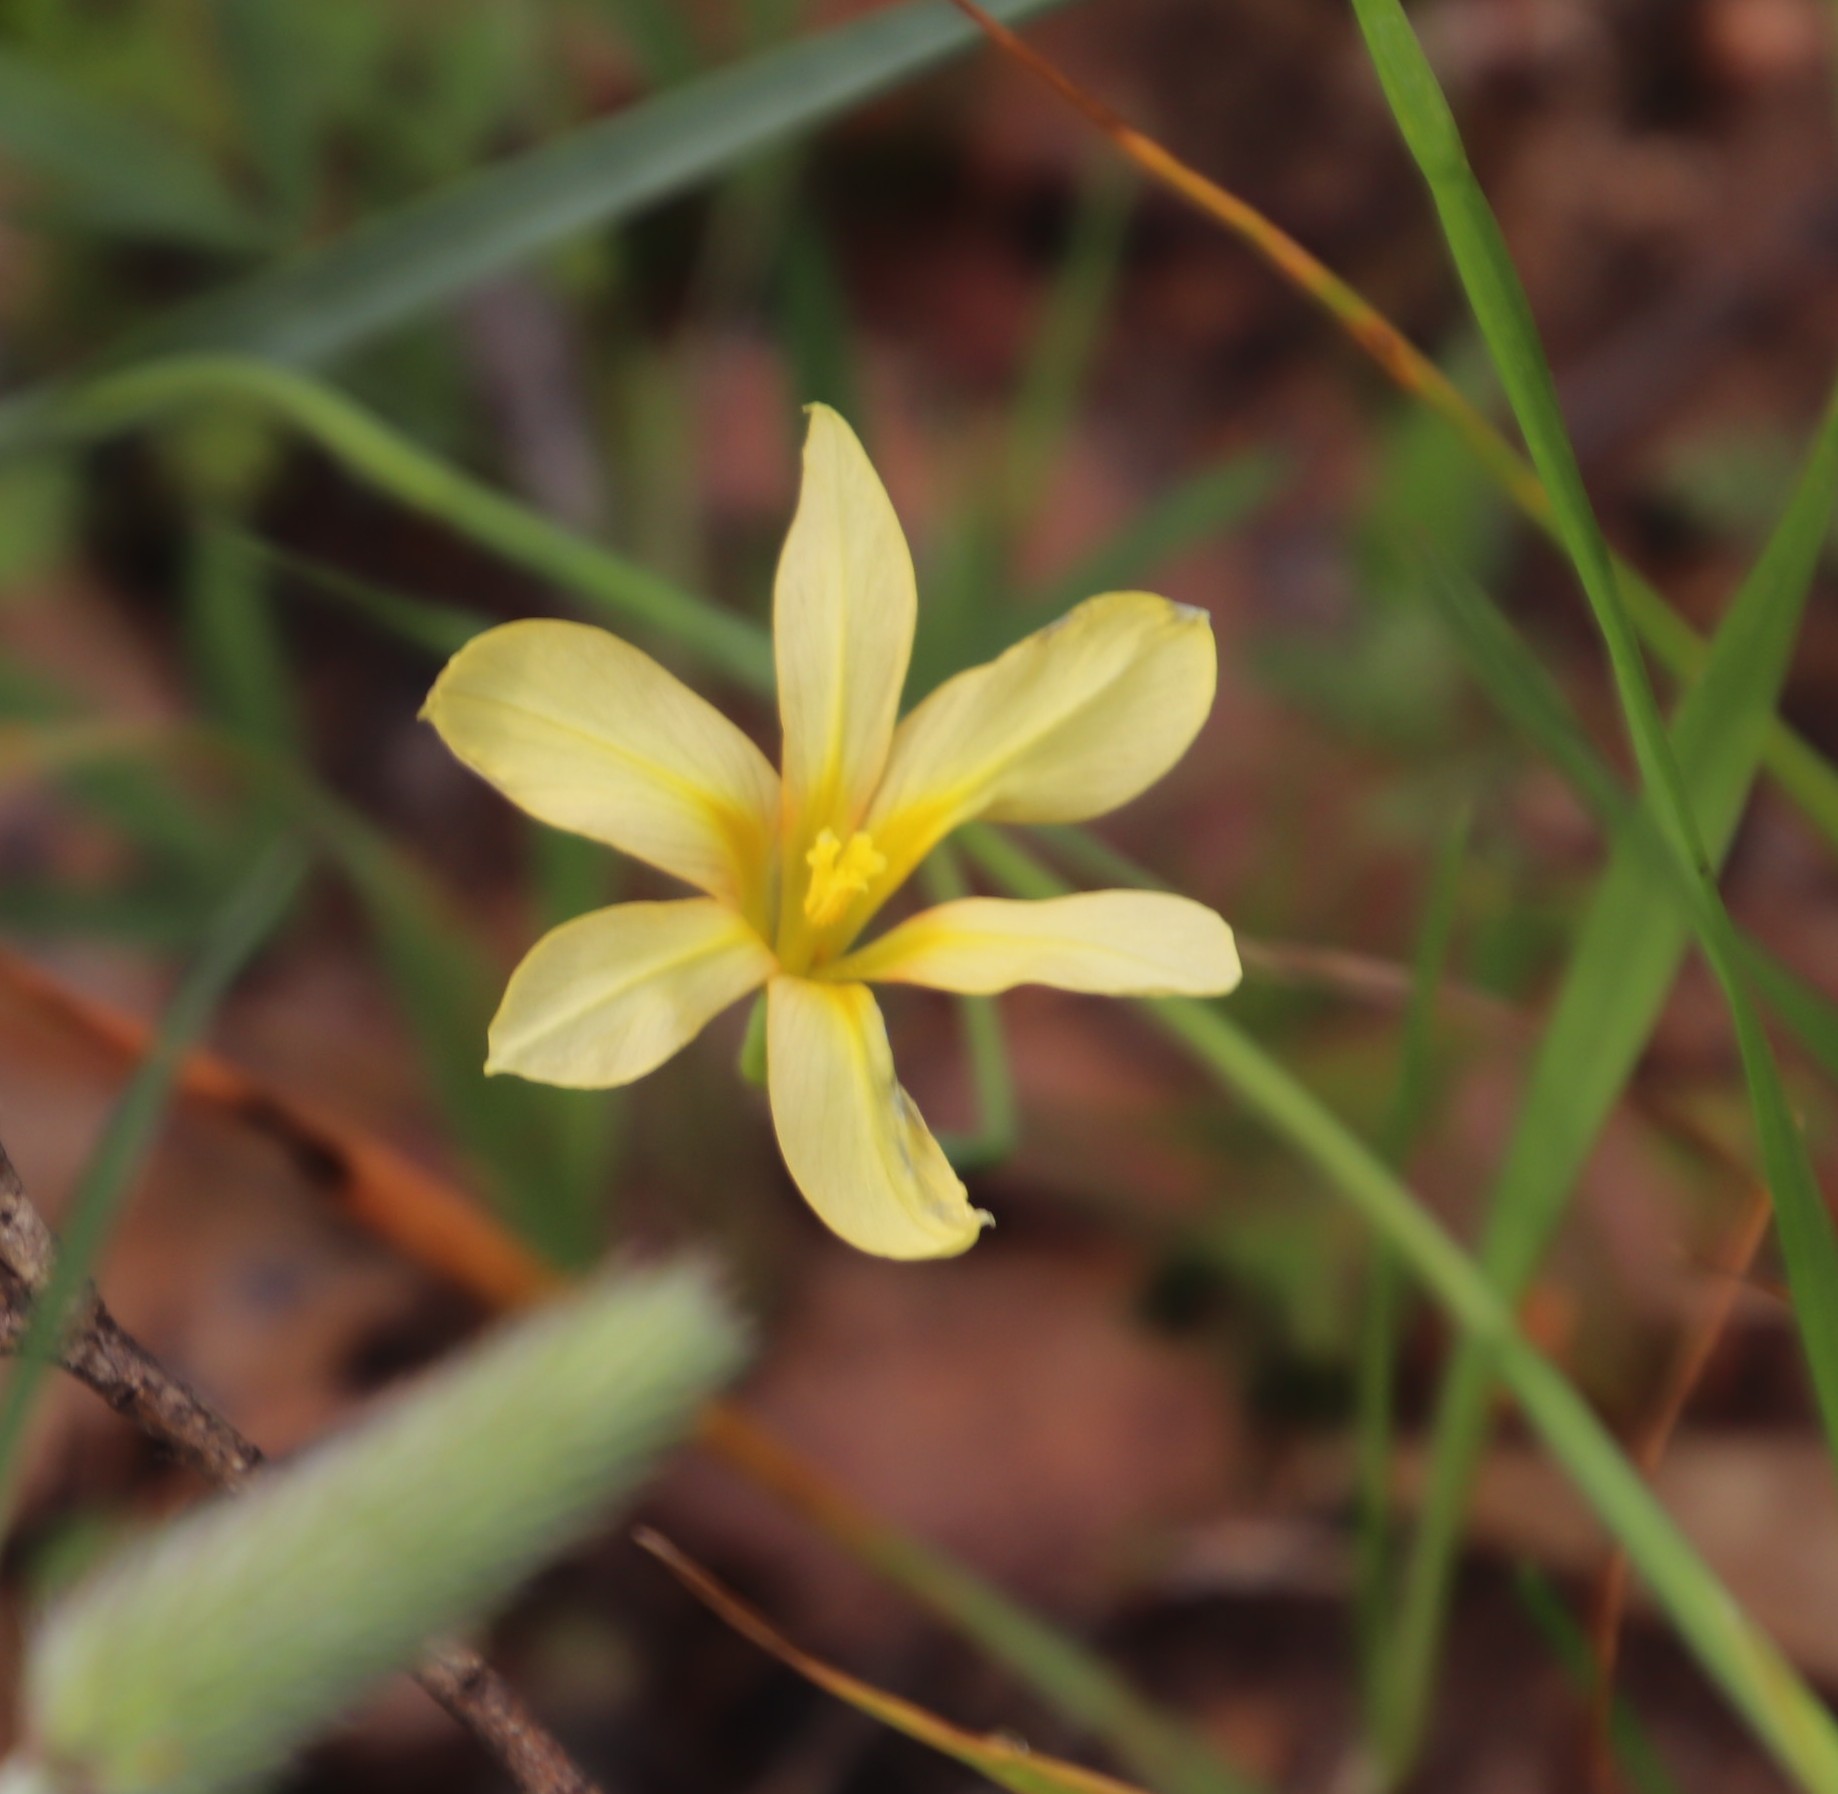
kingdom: Plantae
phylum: Tracheophyta
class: Liliopsida
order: Asparagales
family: Iridaceae
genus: Moraea
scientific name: Moraea collina
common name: Cape-tulip
